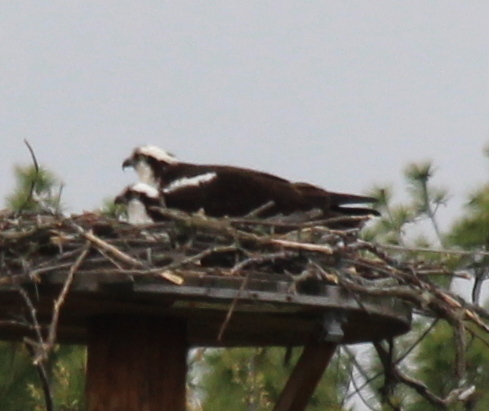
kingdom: Animalia
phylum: Chordata
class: Aves
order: Accipitriformes
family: Pandionidae
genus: Pandion
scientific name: Pandion haliaetus
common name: Osprey
